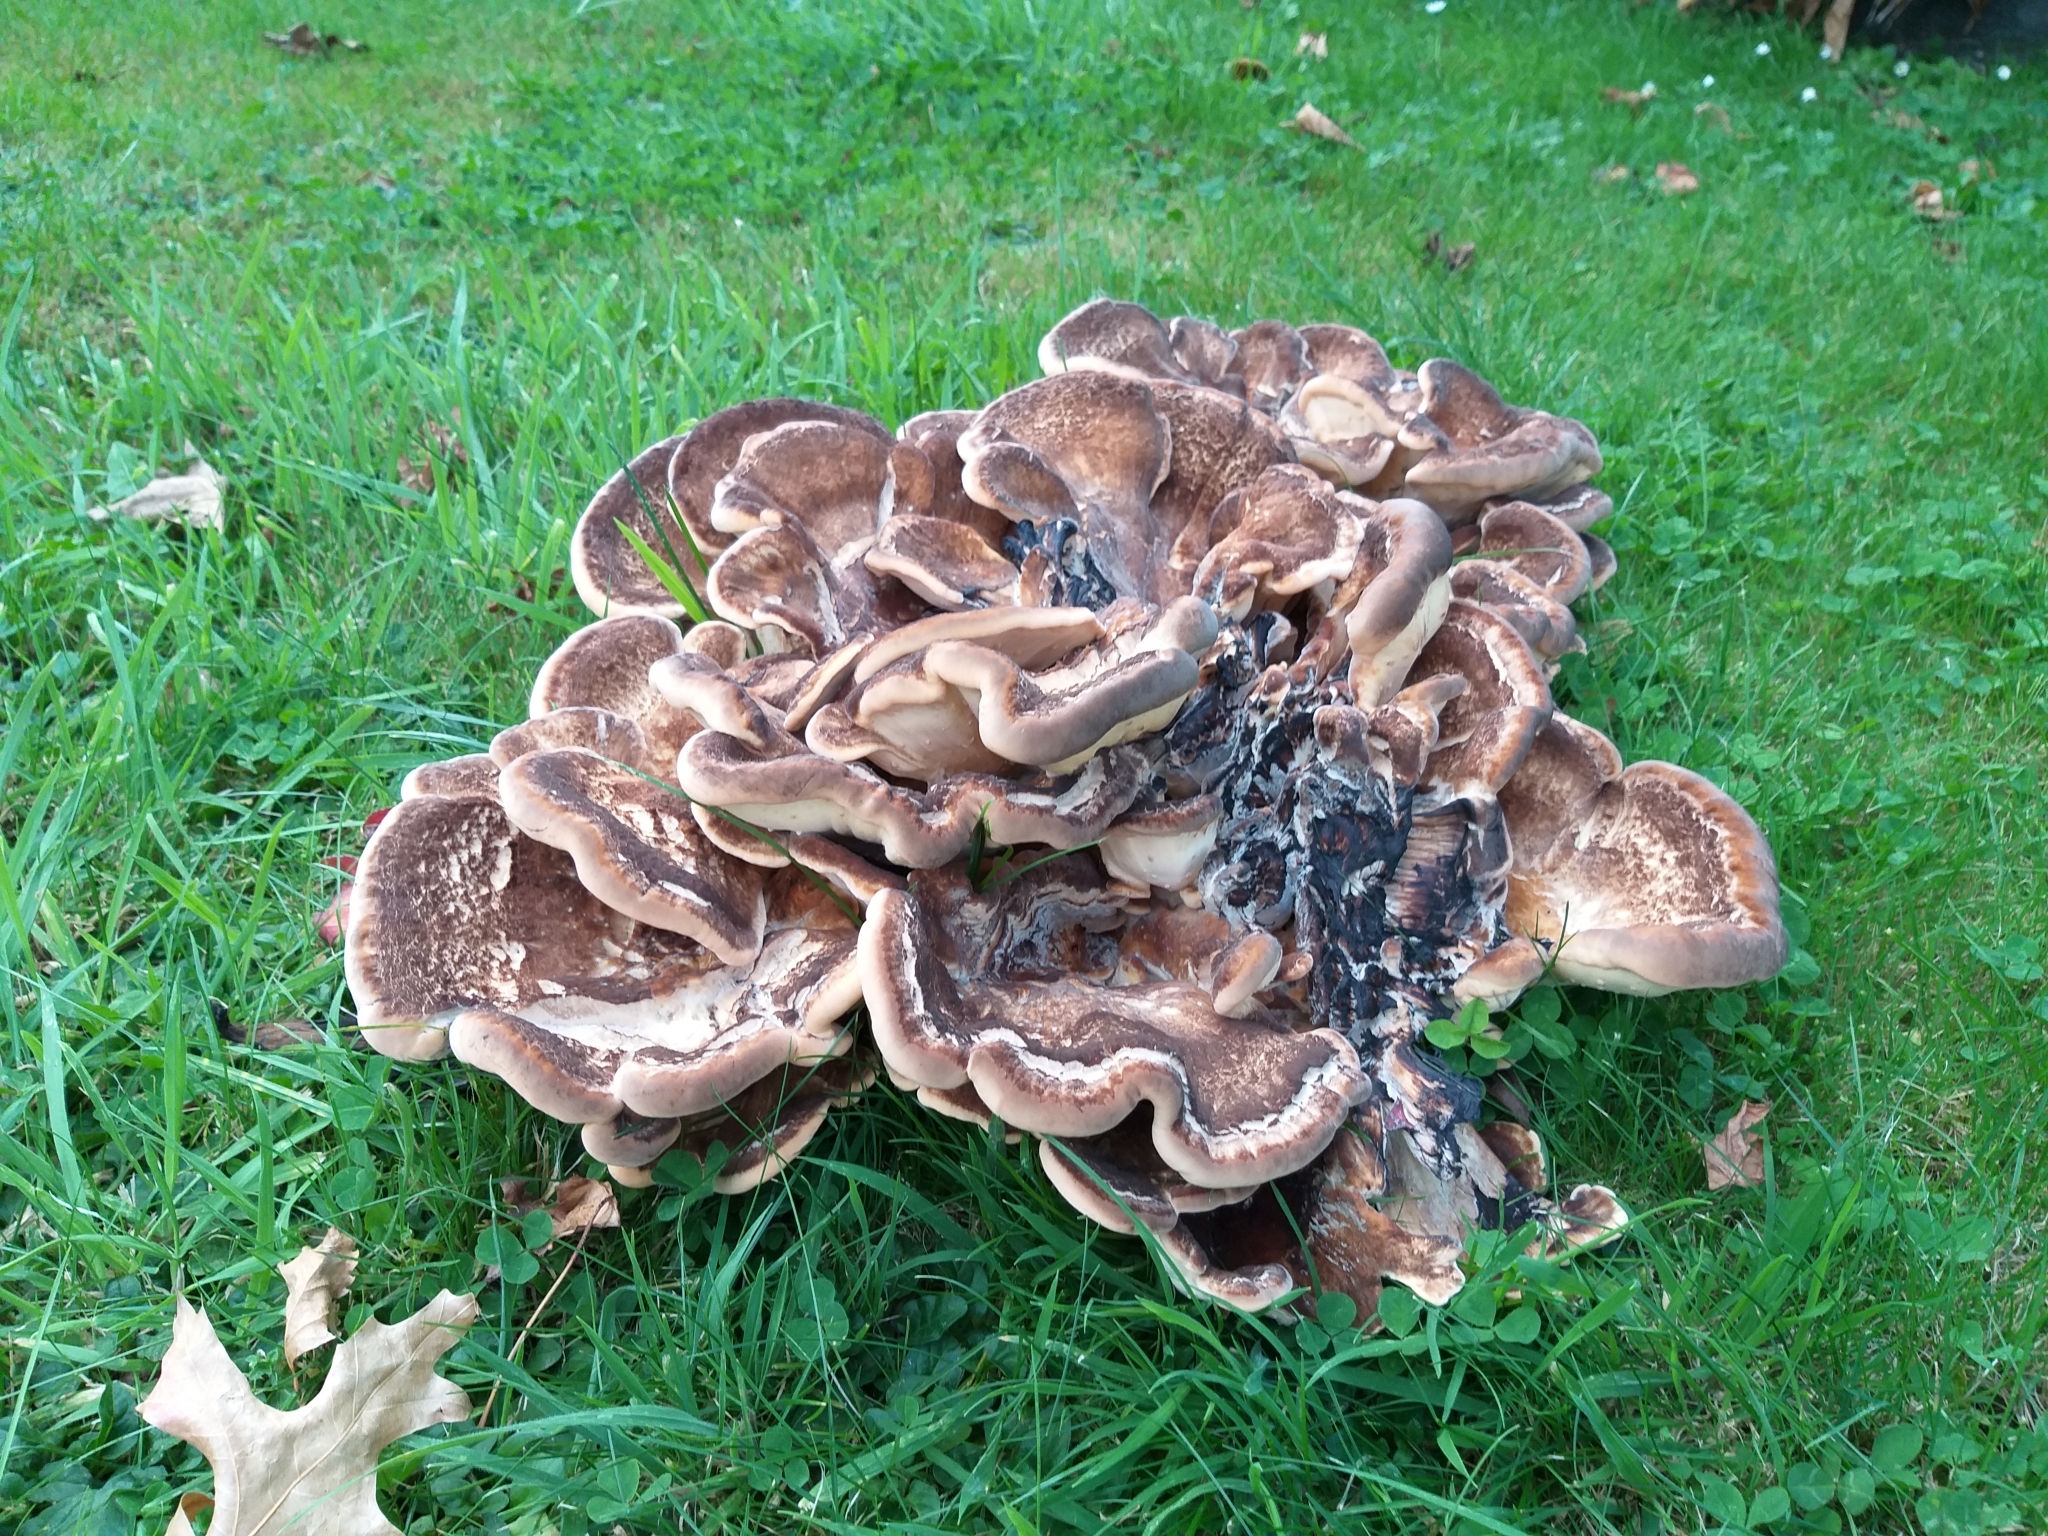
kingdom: Fungi
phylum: Basidiomycota
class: Agaricomycetes
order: Polyporales
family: Meripilaceae
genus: Meripilus
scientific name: Meripilus giganteus
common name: Giant polypore
